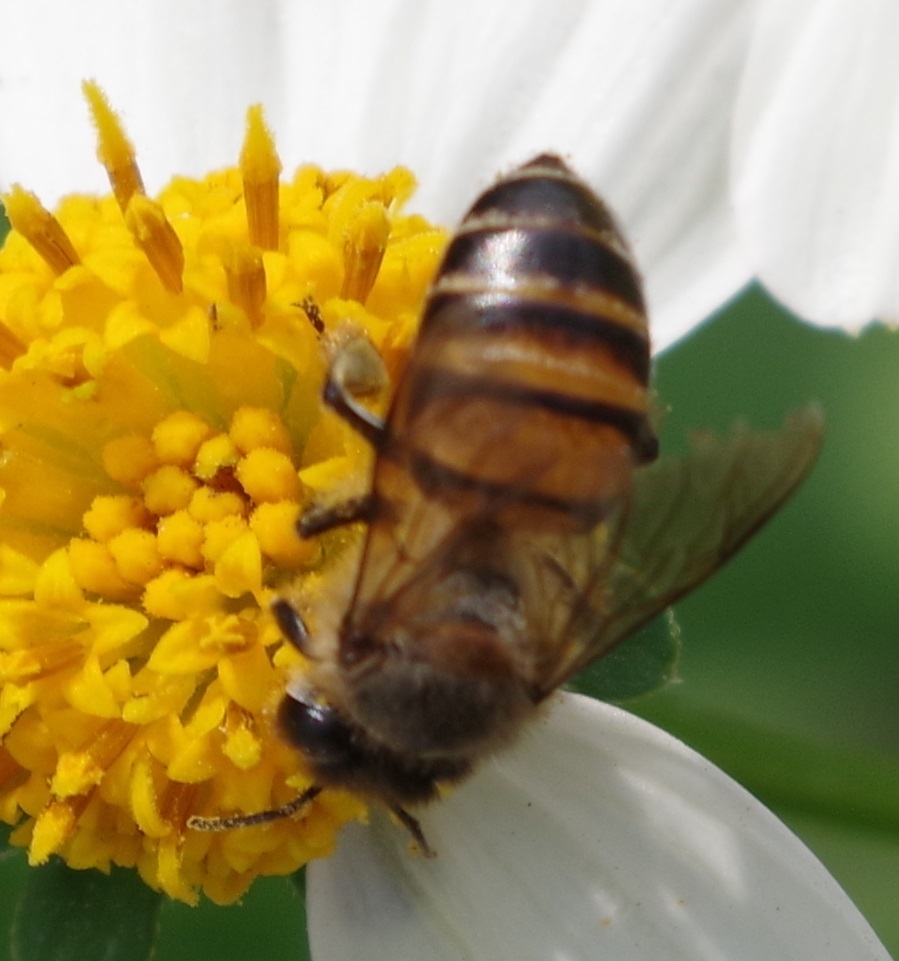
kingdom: Animalia
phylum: Arthropoda
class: Insecta
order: Hymenoptera
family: Apidae
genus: Apis
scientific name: Apis cerana
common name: Honey bee
